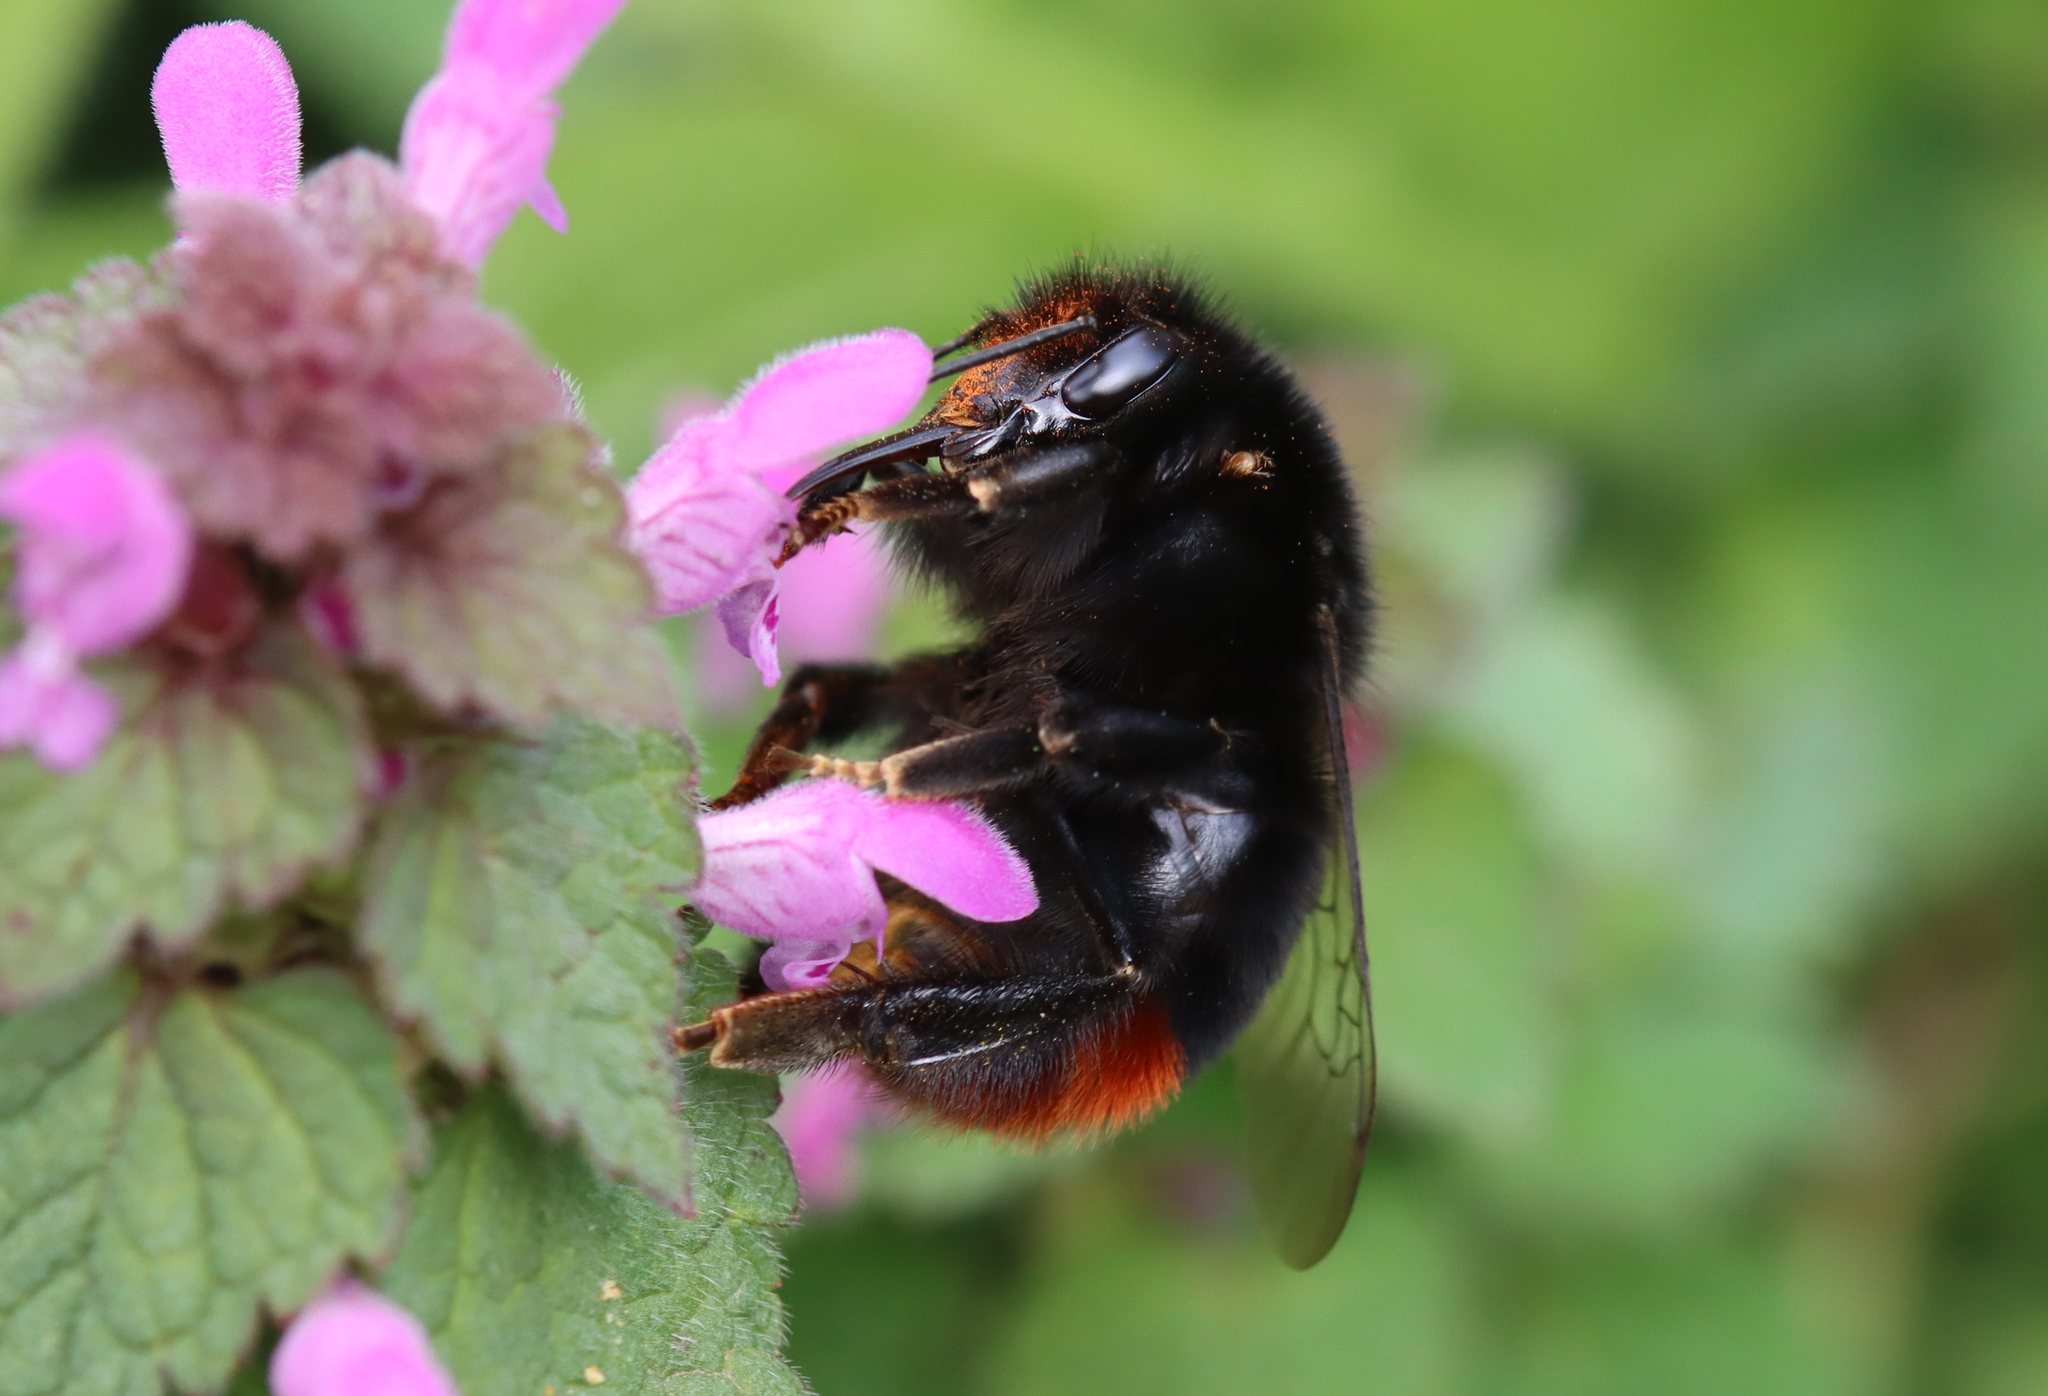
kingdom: Animalia
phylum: Arthropoda
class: Insecta
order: Hymenoptera
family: Apidae
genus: Bombus
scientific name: Bombus lapidarius
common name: Large red-tailed humble-bee
